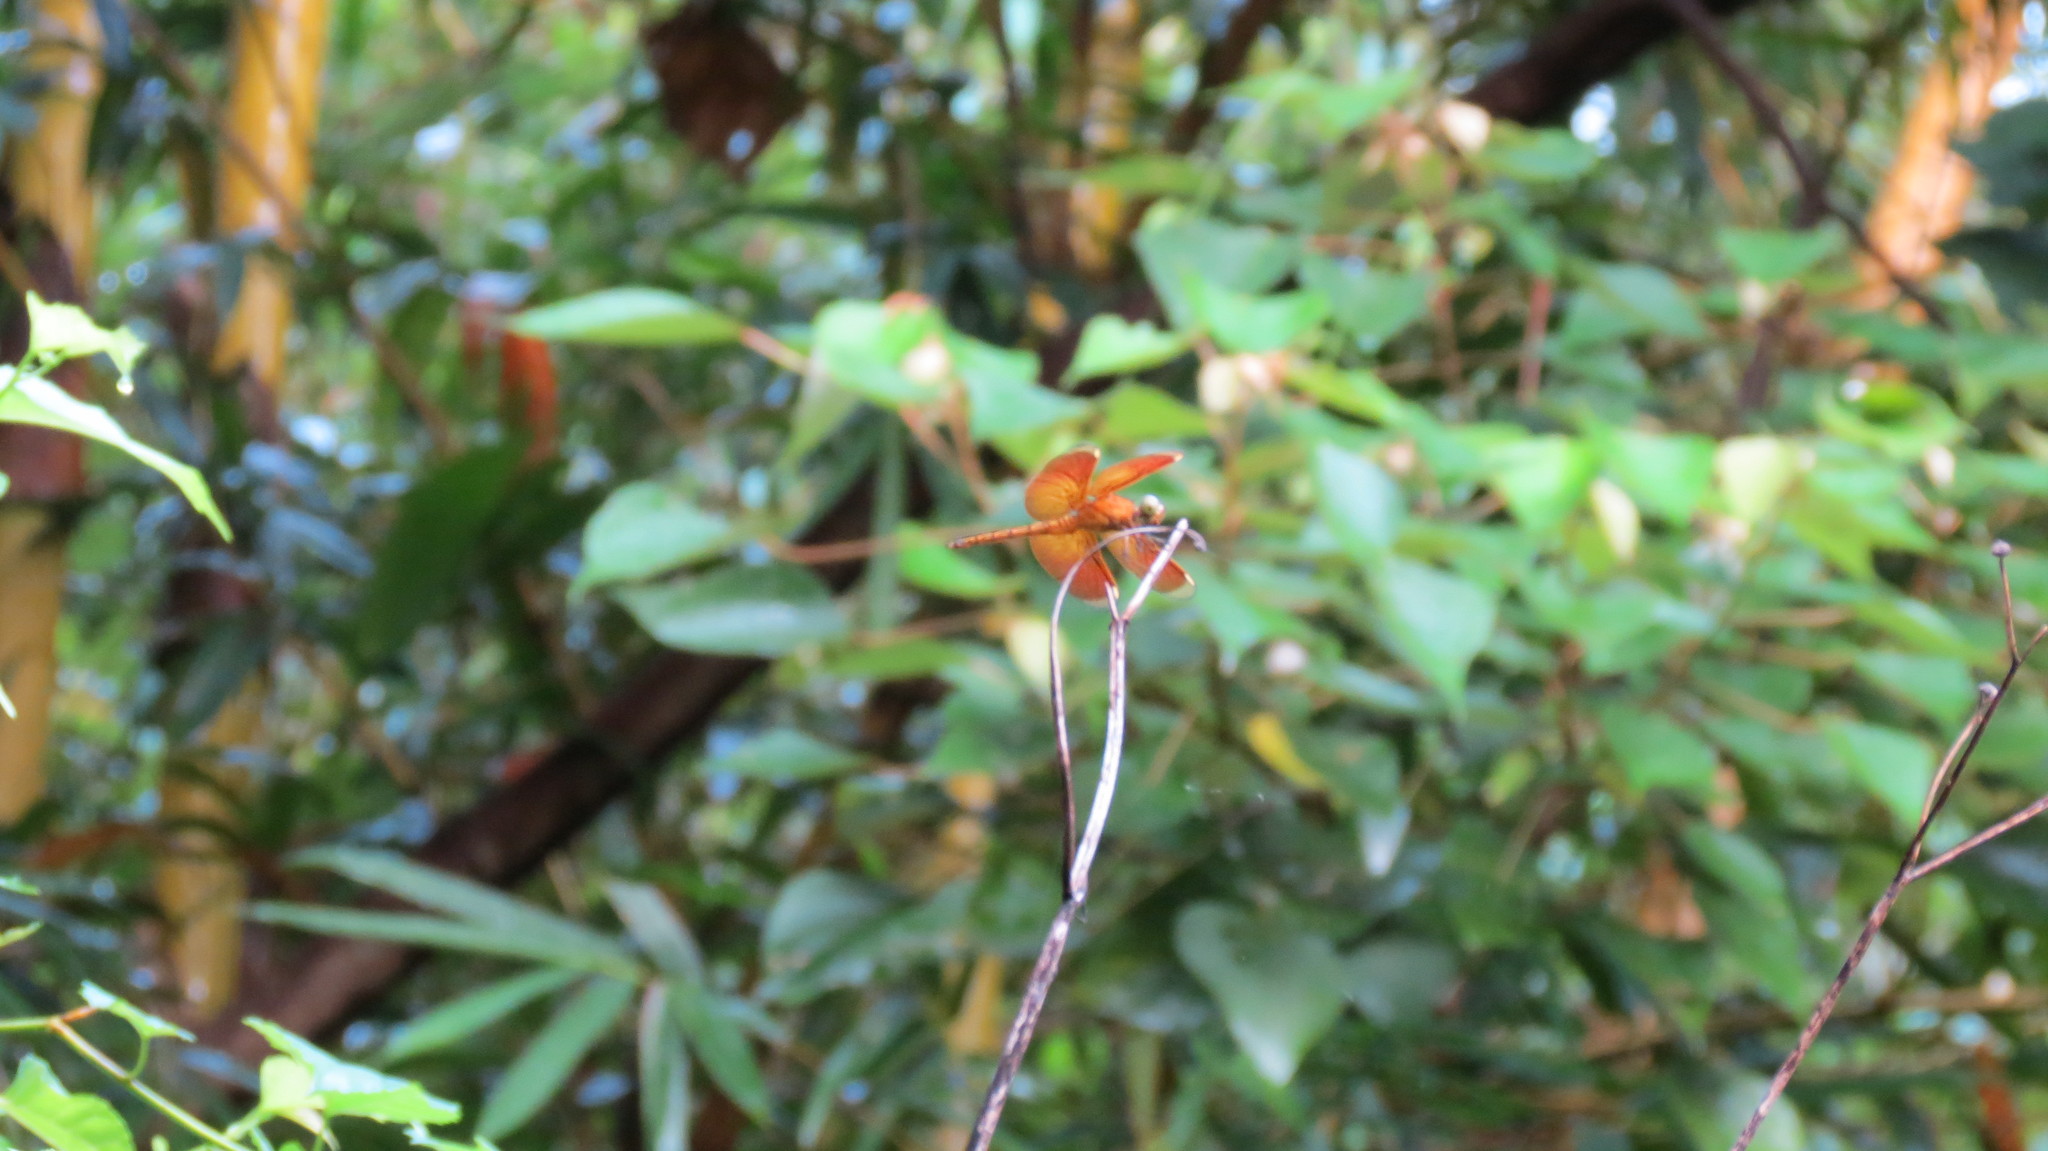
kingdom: Animalia
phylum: Arthropoda
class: Insecta
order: Odonata
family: Libellulidae
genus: Neurothemis
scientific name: Neurothemis taiwanensis
